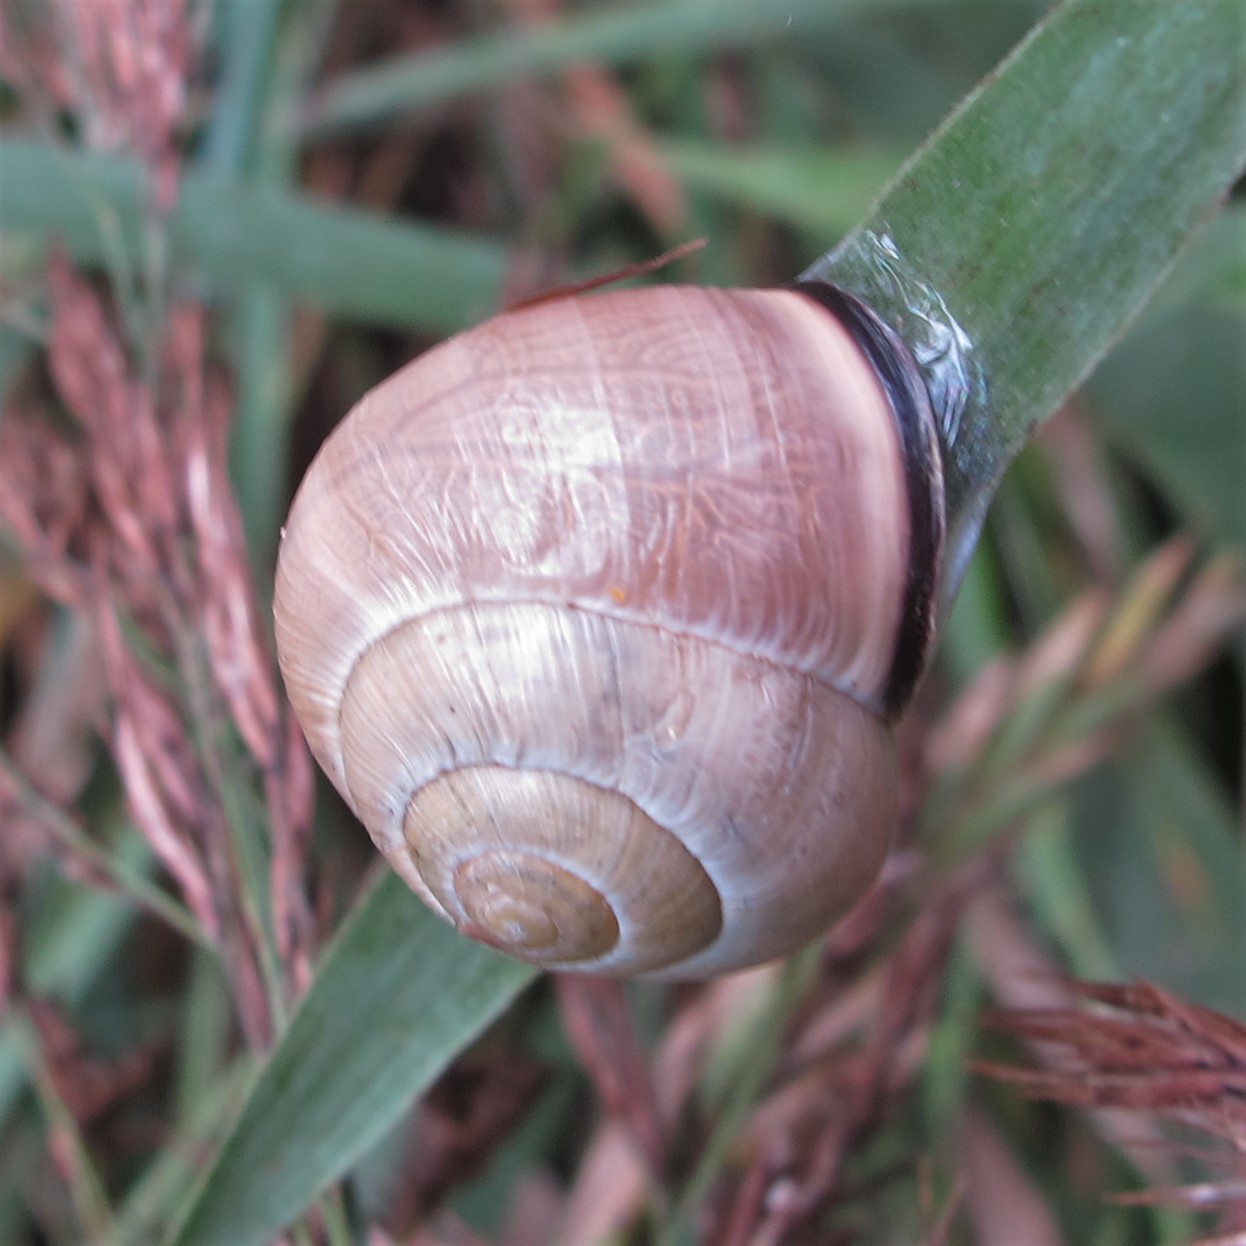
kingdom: Animalia
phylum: Mollusca
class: Gastropoda
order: Stylommatophora
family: Helicidae
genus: Cepaea
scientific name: Cepaea nemoralis
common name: Grovesnail
